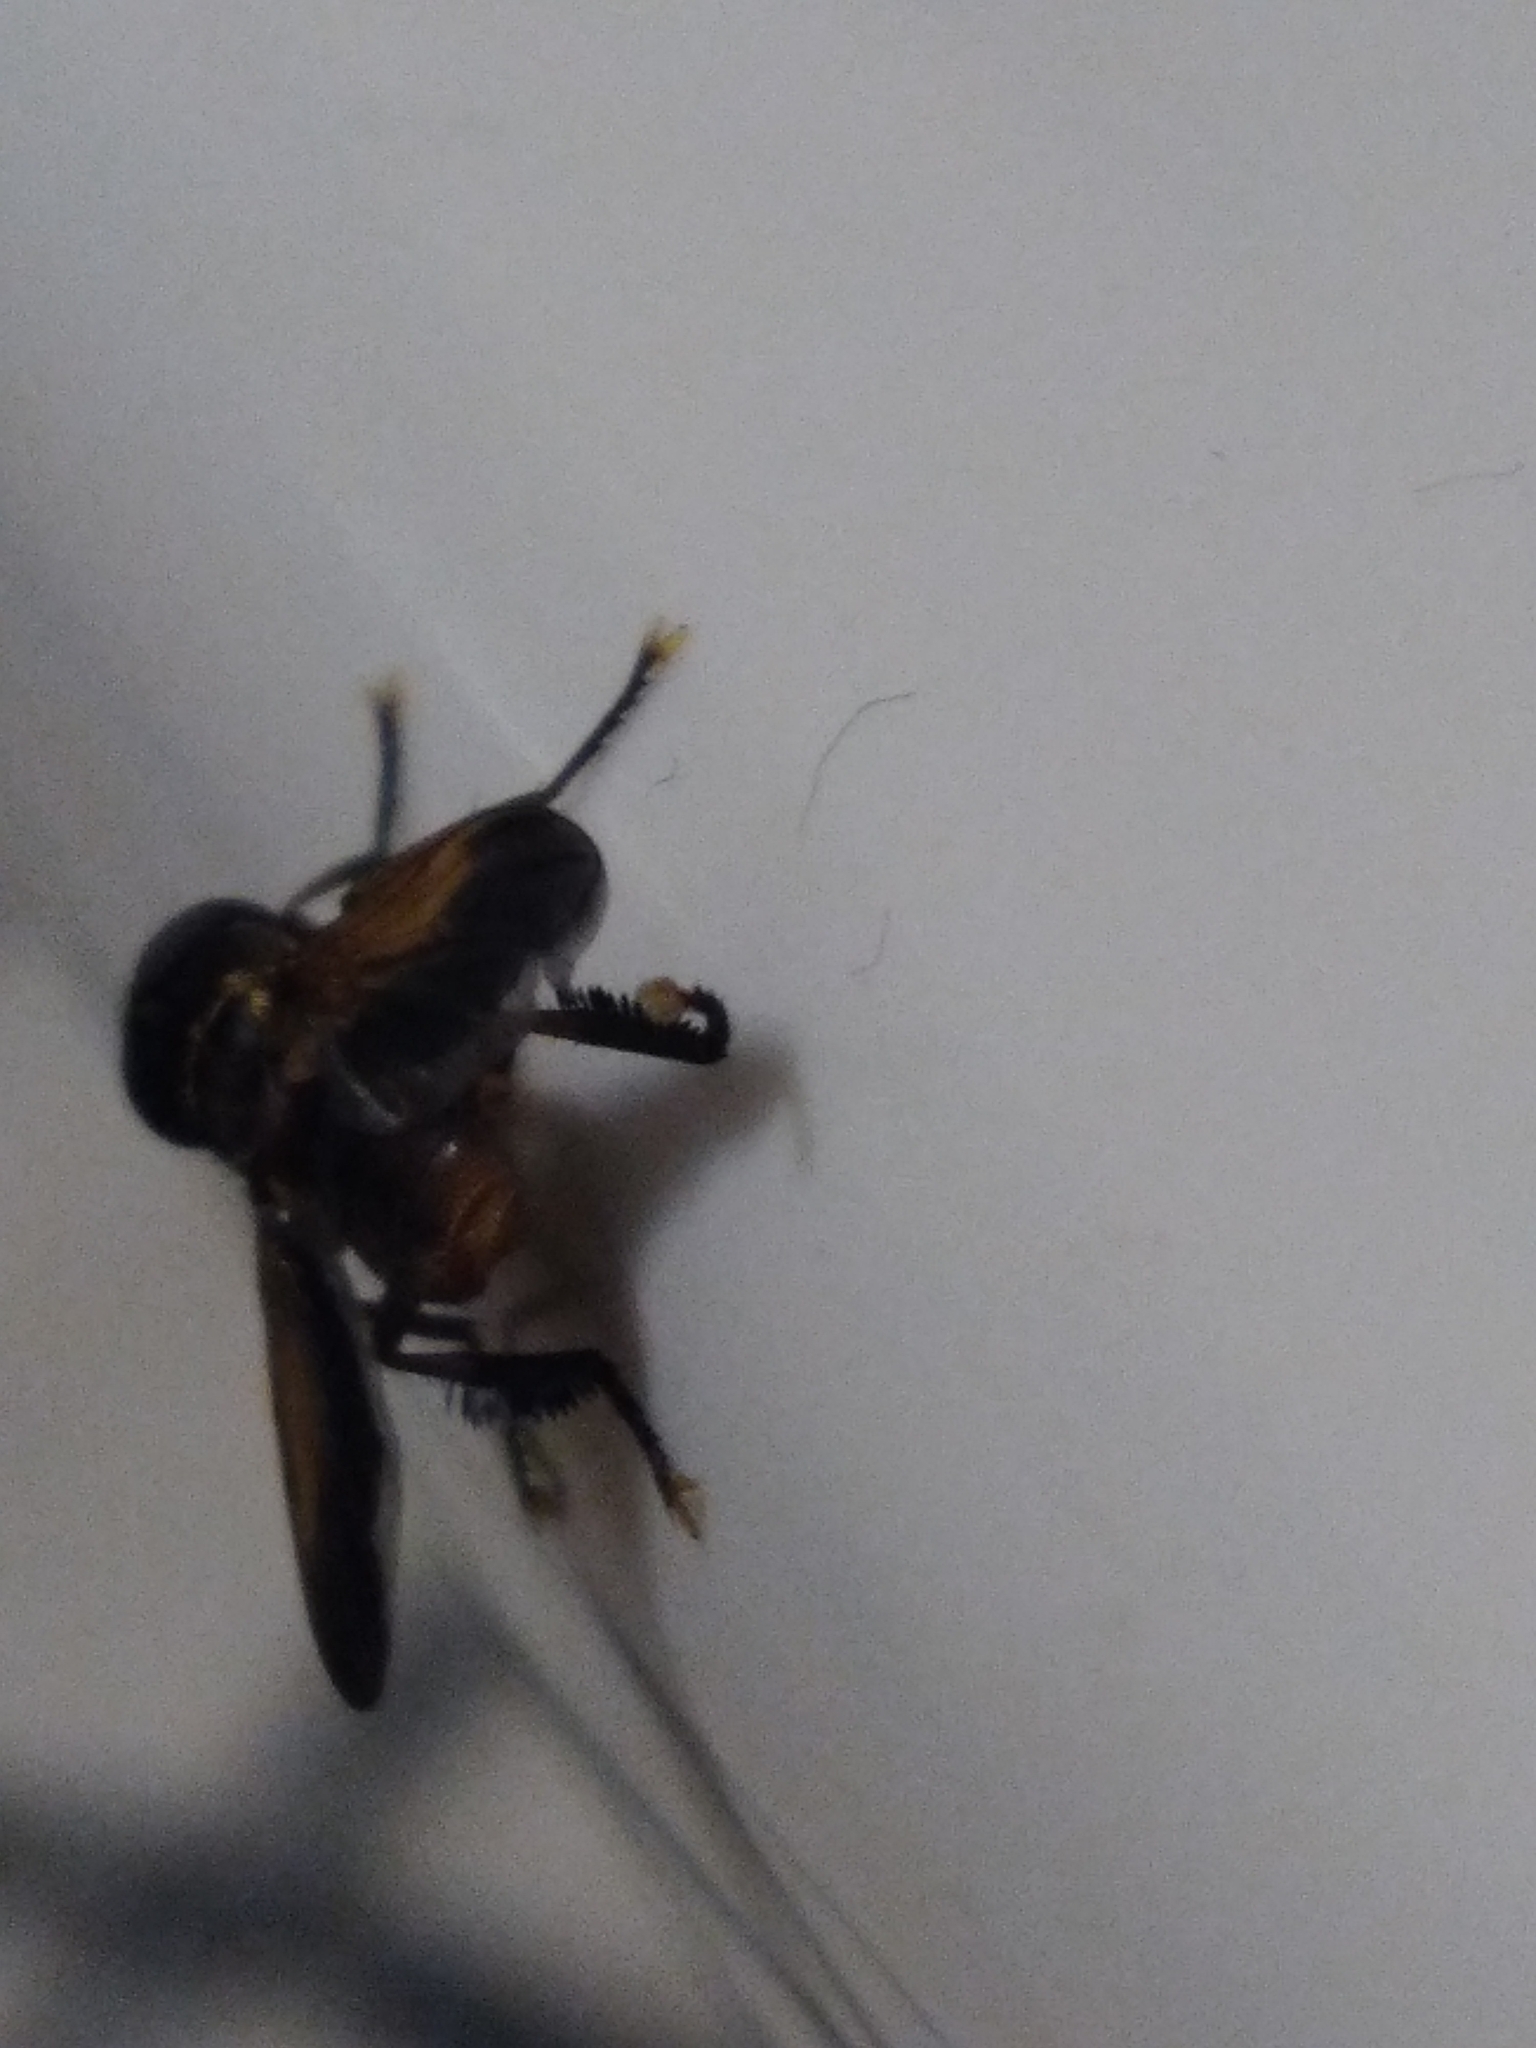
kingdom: Animalia
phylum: Arthropoda
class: Insecta
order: Diptera
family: Tachinidae
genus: Trichopoda
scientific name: Trichopoda pictipennis
